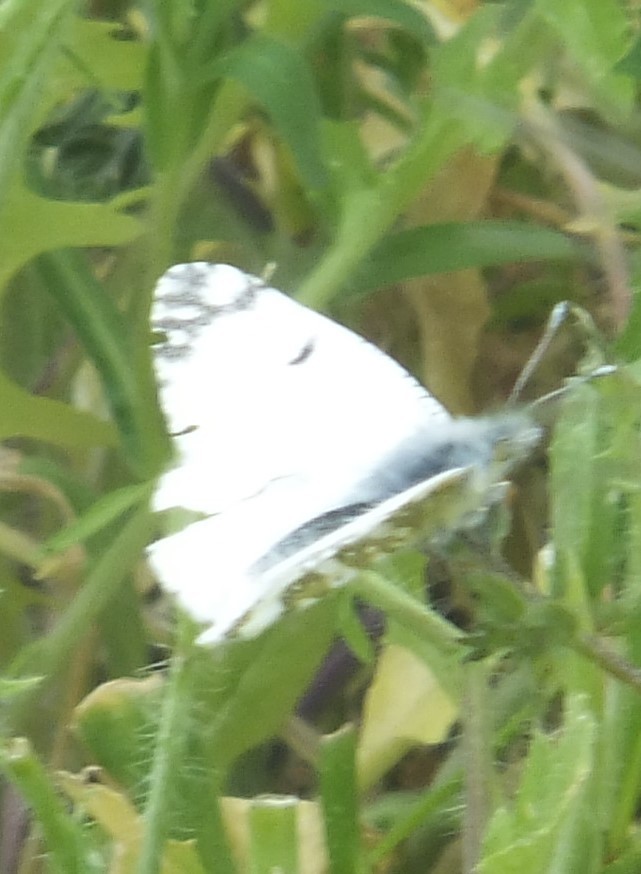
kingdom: Animalia
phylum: Arthropoda
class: Insecta
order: Lepidoptera
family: Pieridae
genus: Euchloe
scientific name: Euchloe ausonides
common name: Creamy marblewing
